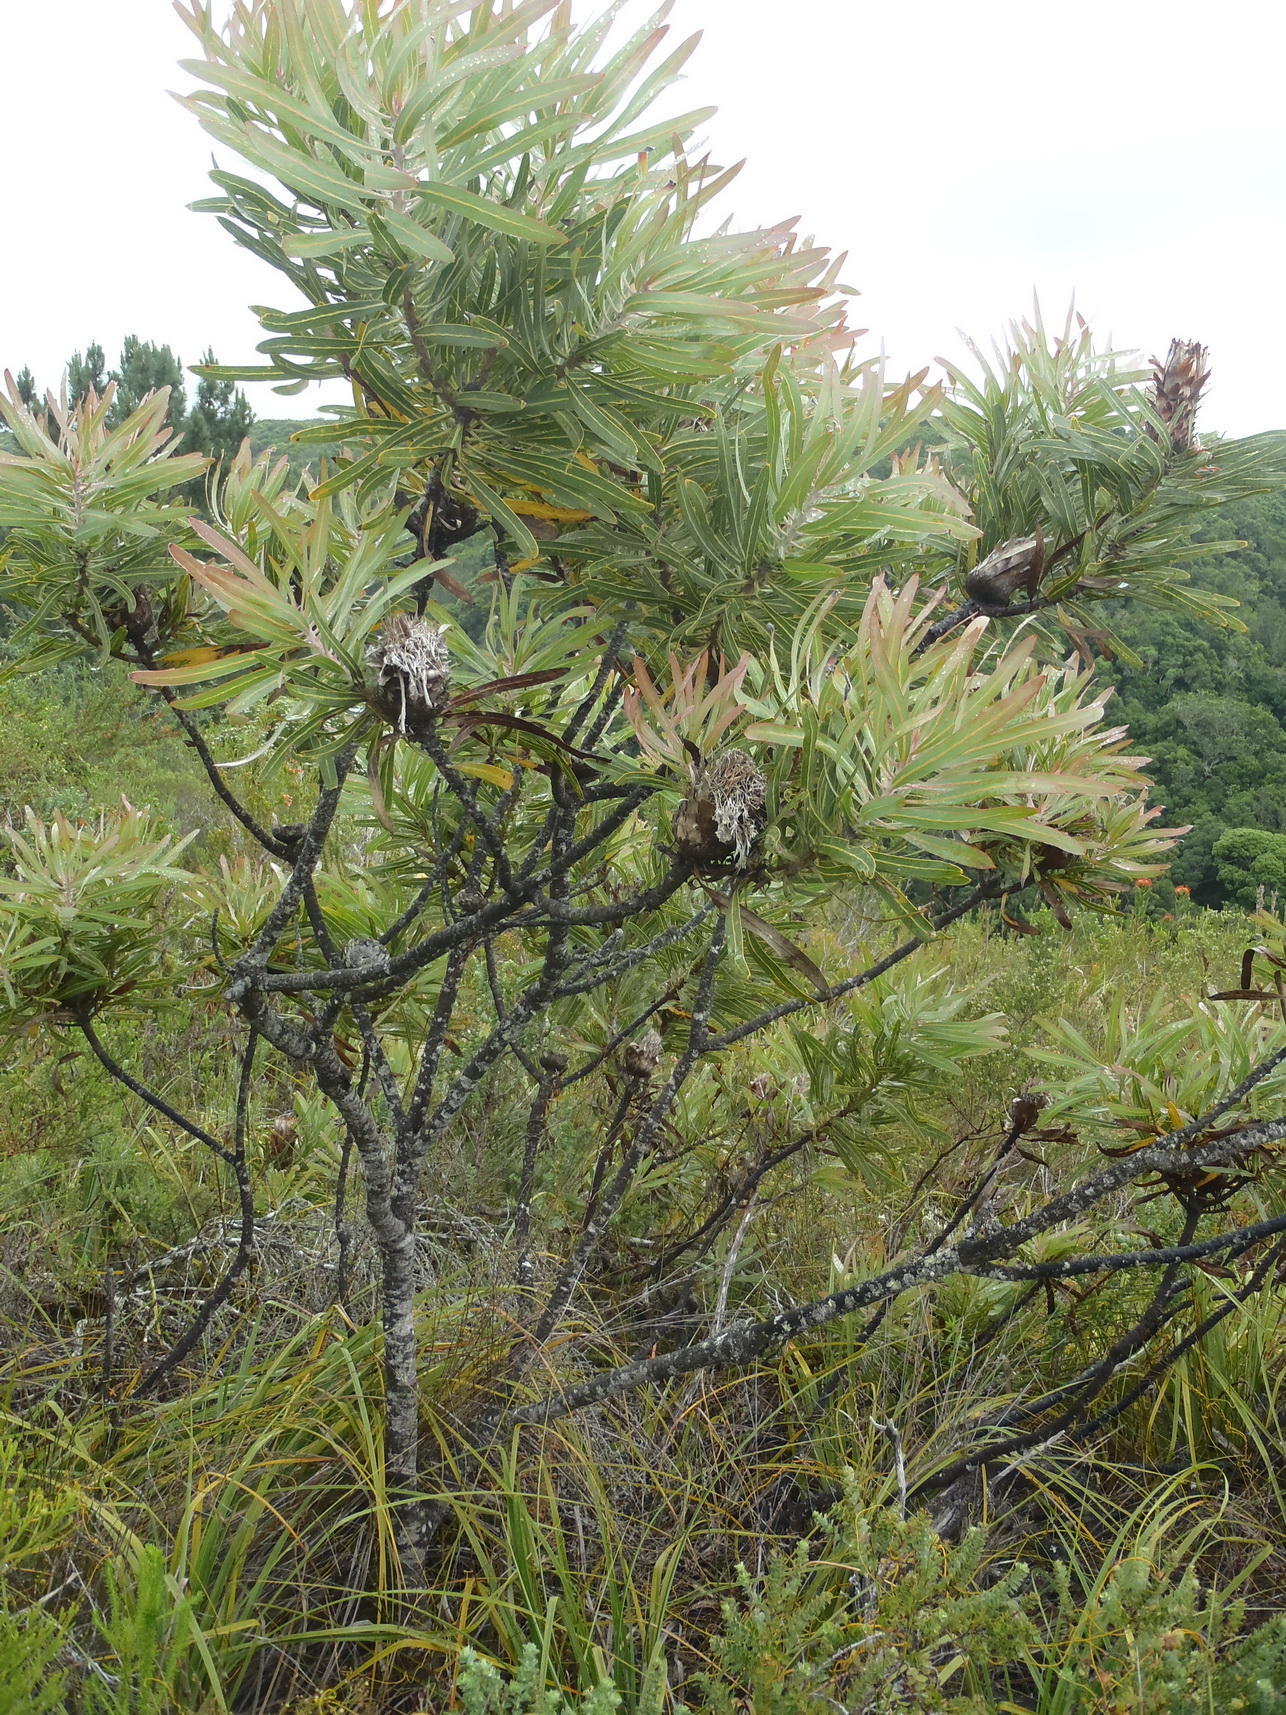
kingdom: Plantae
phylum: Tracheophyta
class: Magnoliopsida
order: Proteales
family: Proteaceae
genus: Protea
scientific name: Protea neriifolia
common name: Blue sugarbush
